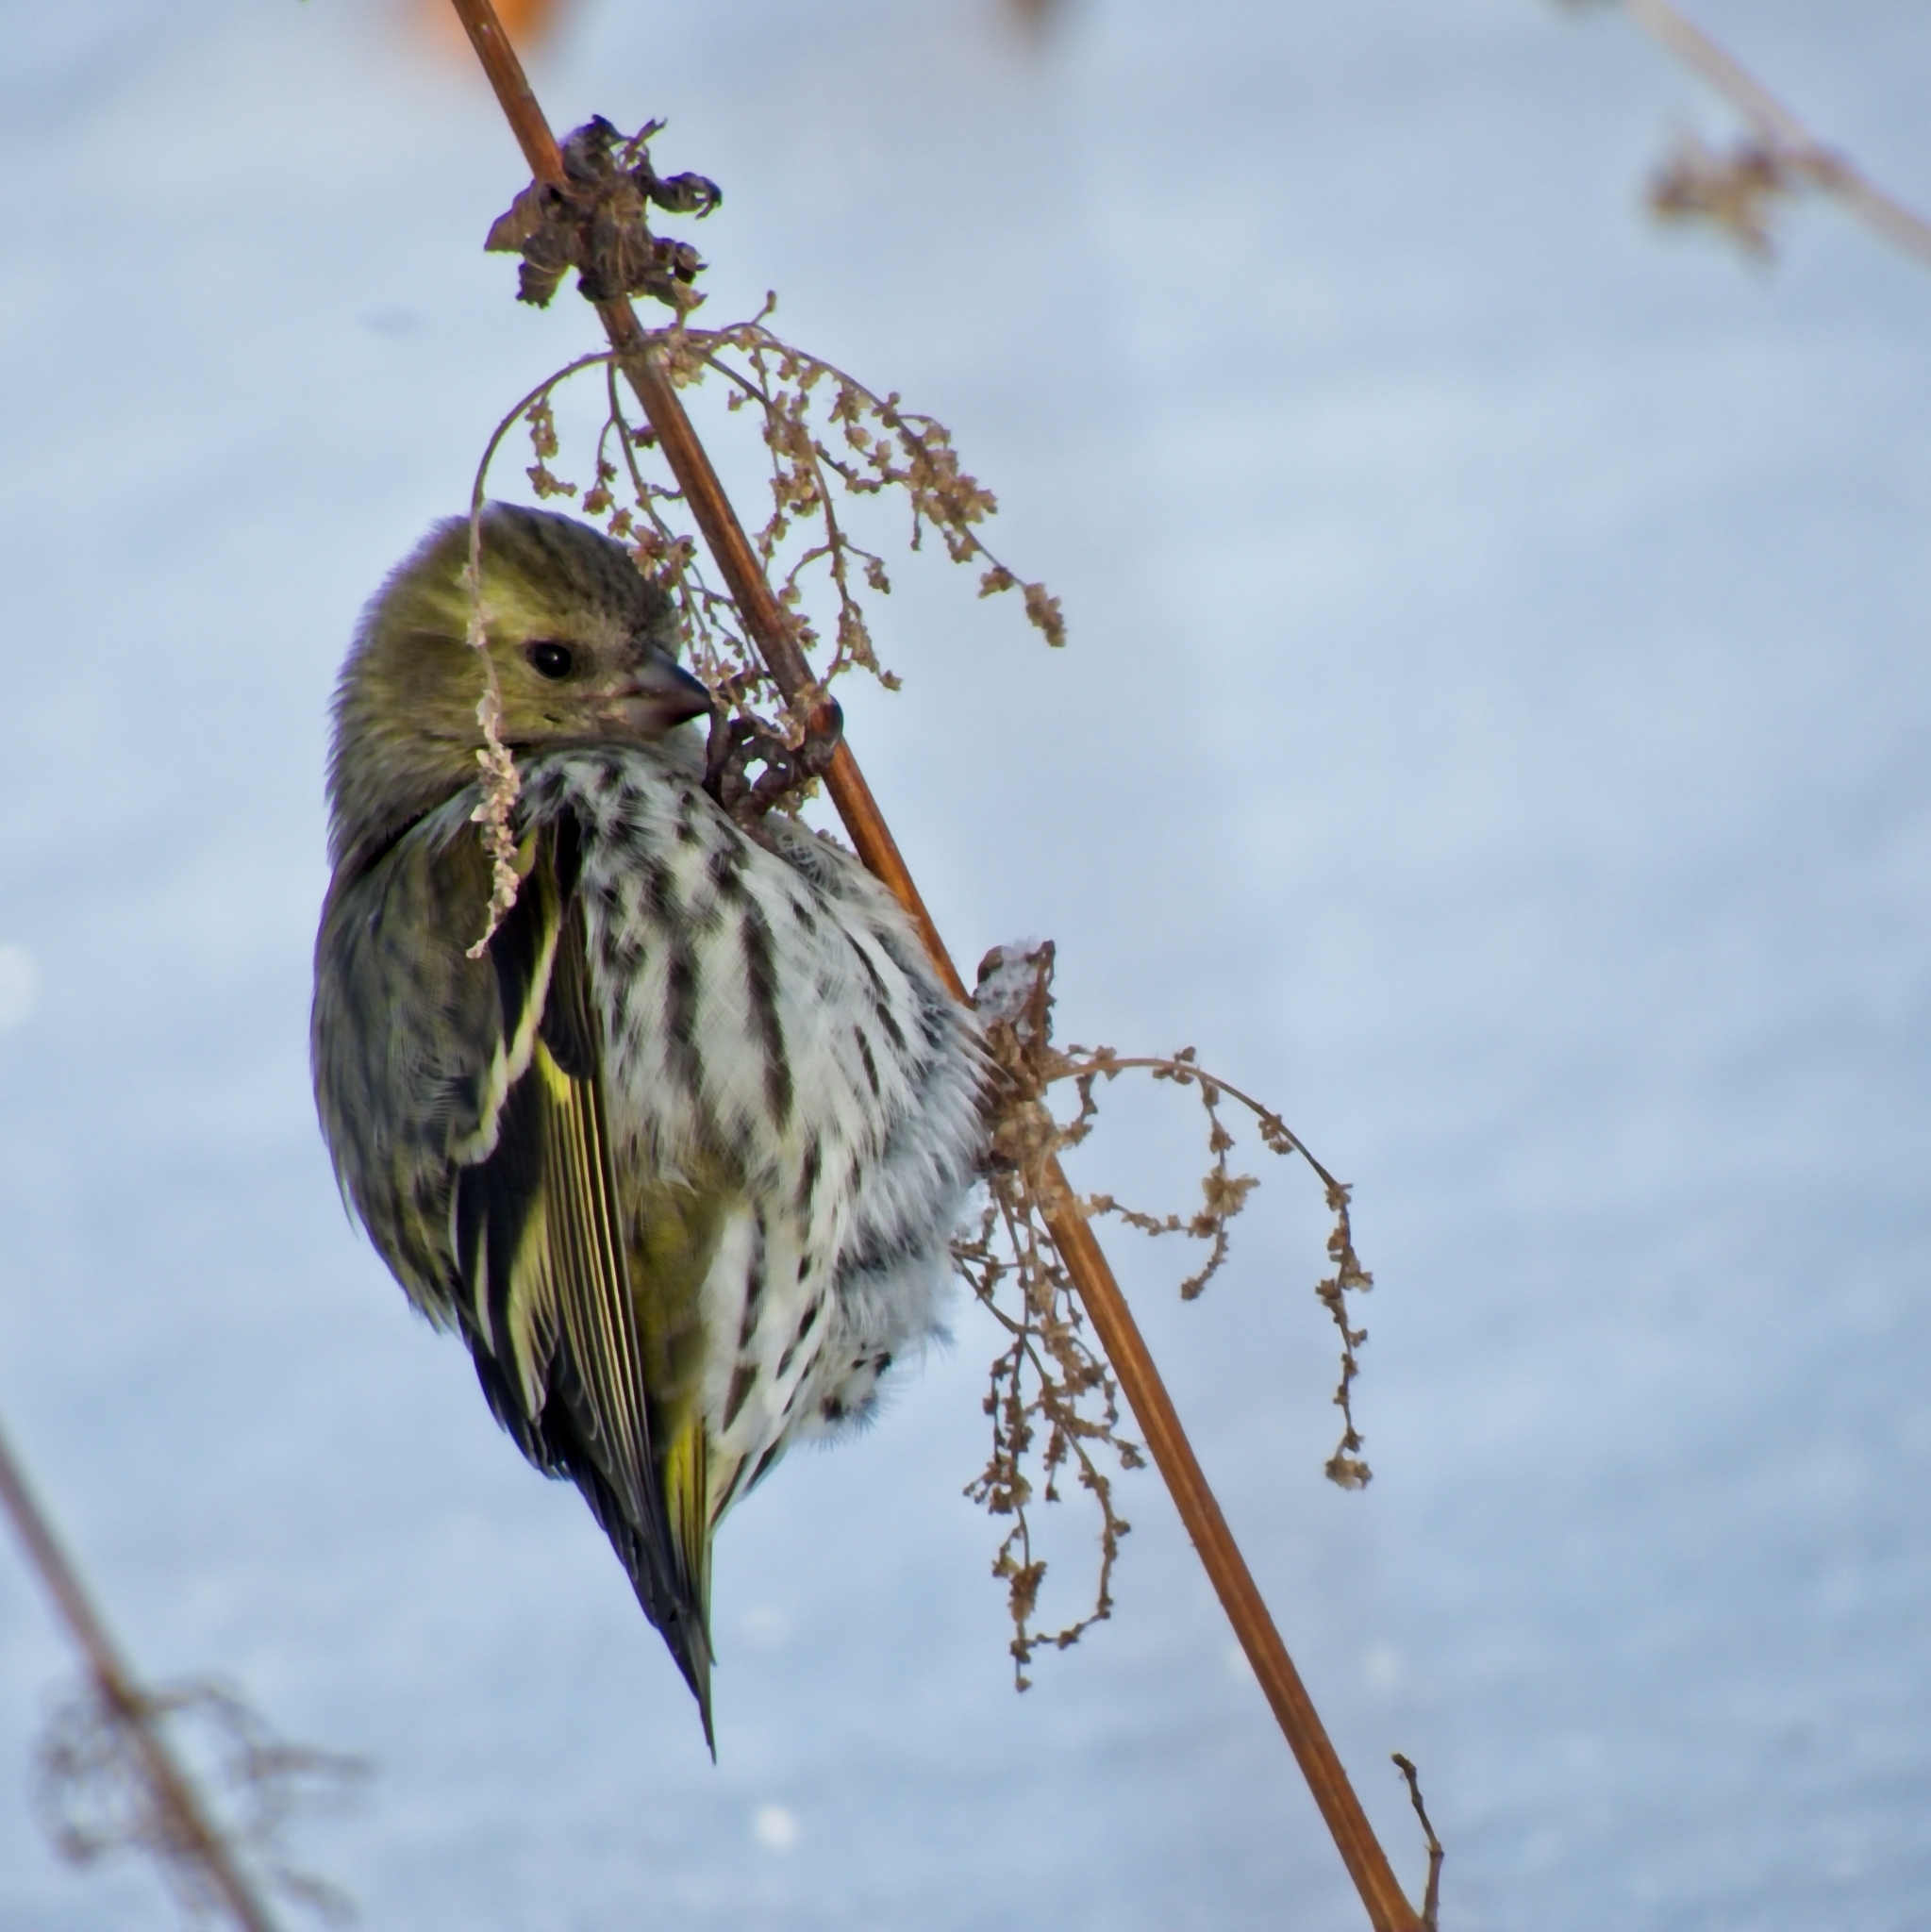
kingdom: Animalia
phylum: Chordata
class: Aves
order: Passeriformes
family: Fringillidae
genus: Spinus
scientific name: Spinus spinus
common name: Eurasian siskin
